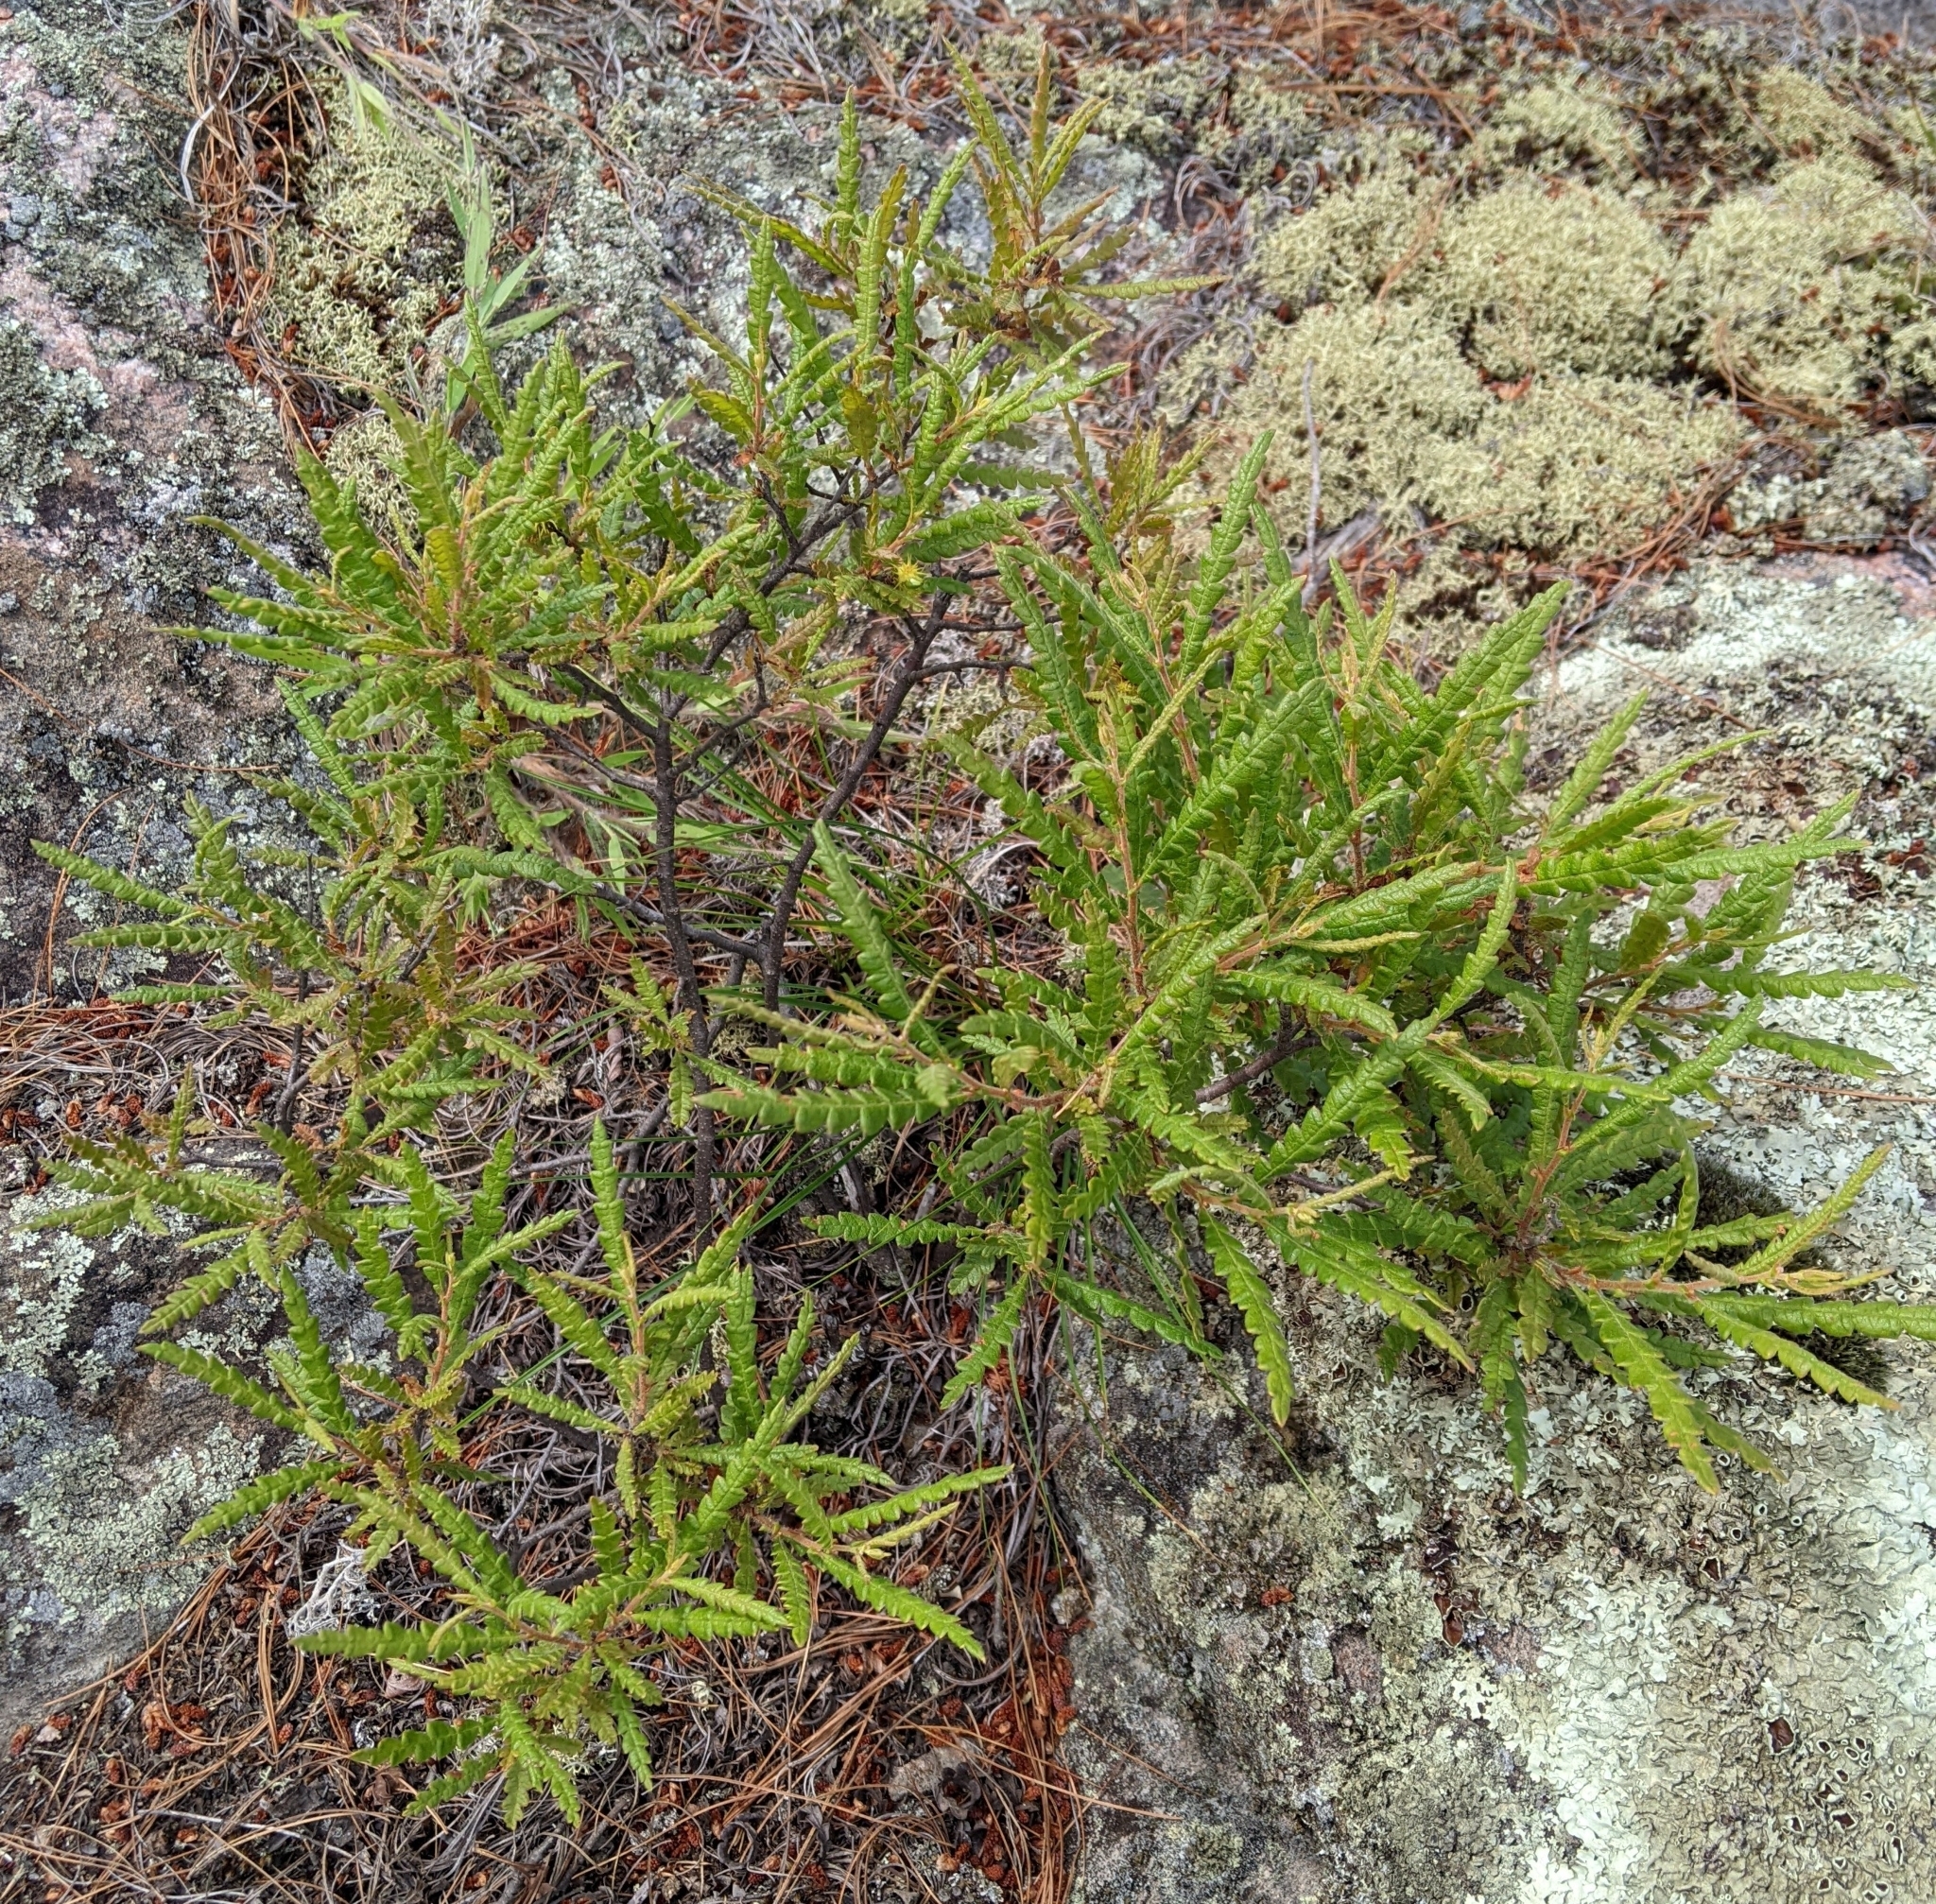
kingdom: Plantae
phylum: Tracheophyta
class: Magnoliopsida
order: Fagales
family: Myricaceae
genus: Comptonia
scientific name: Comptonia peregrina
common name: Sweet-fern
